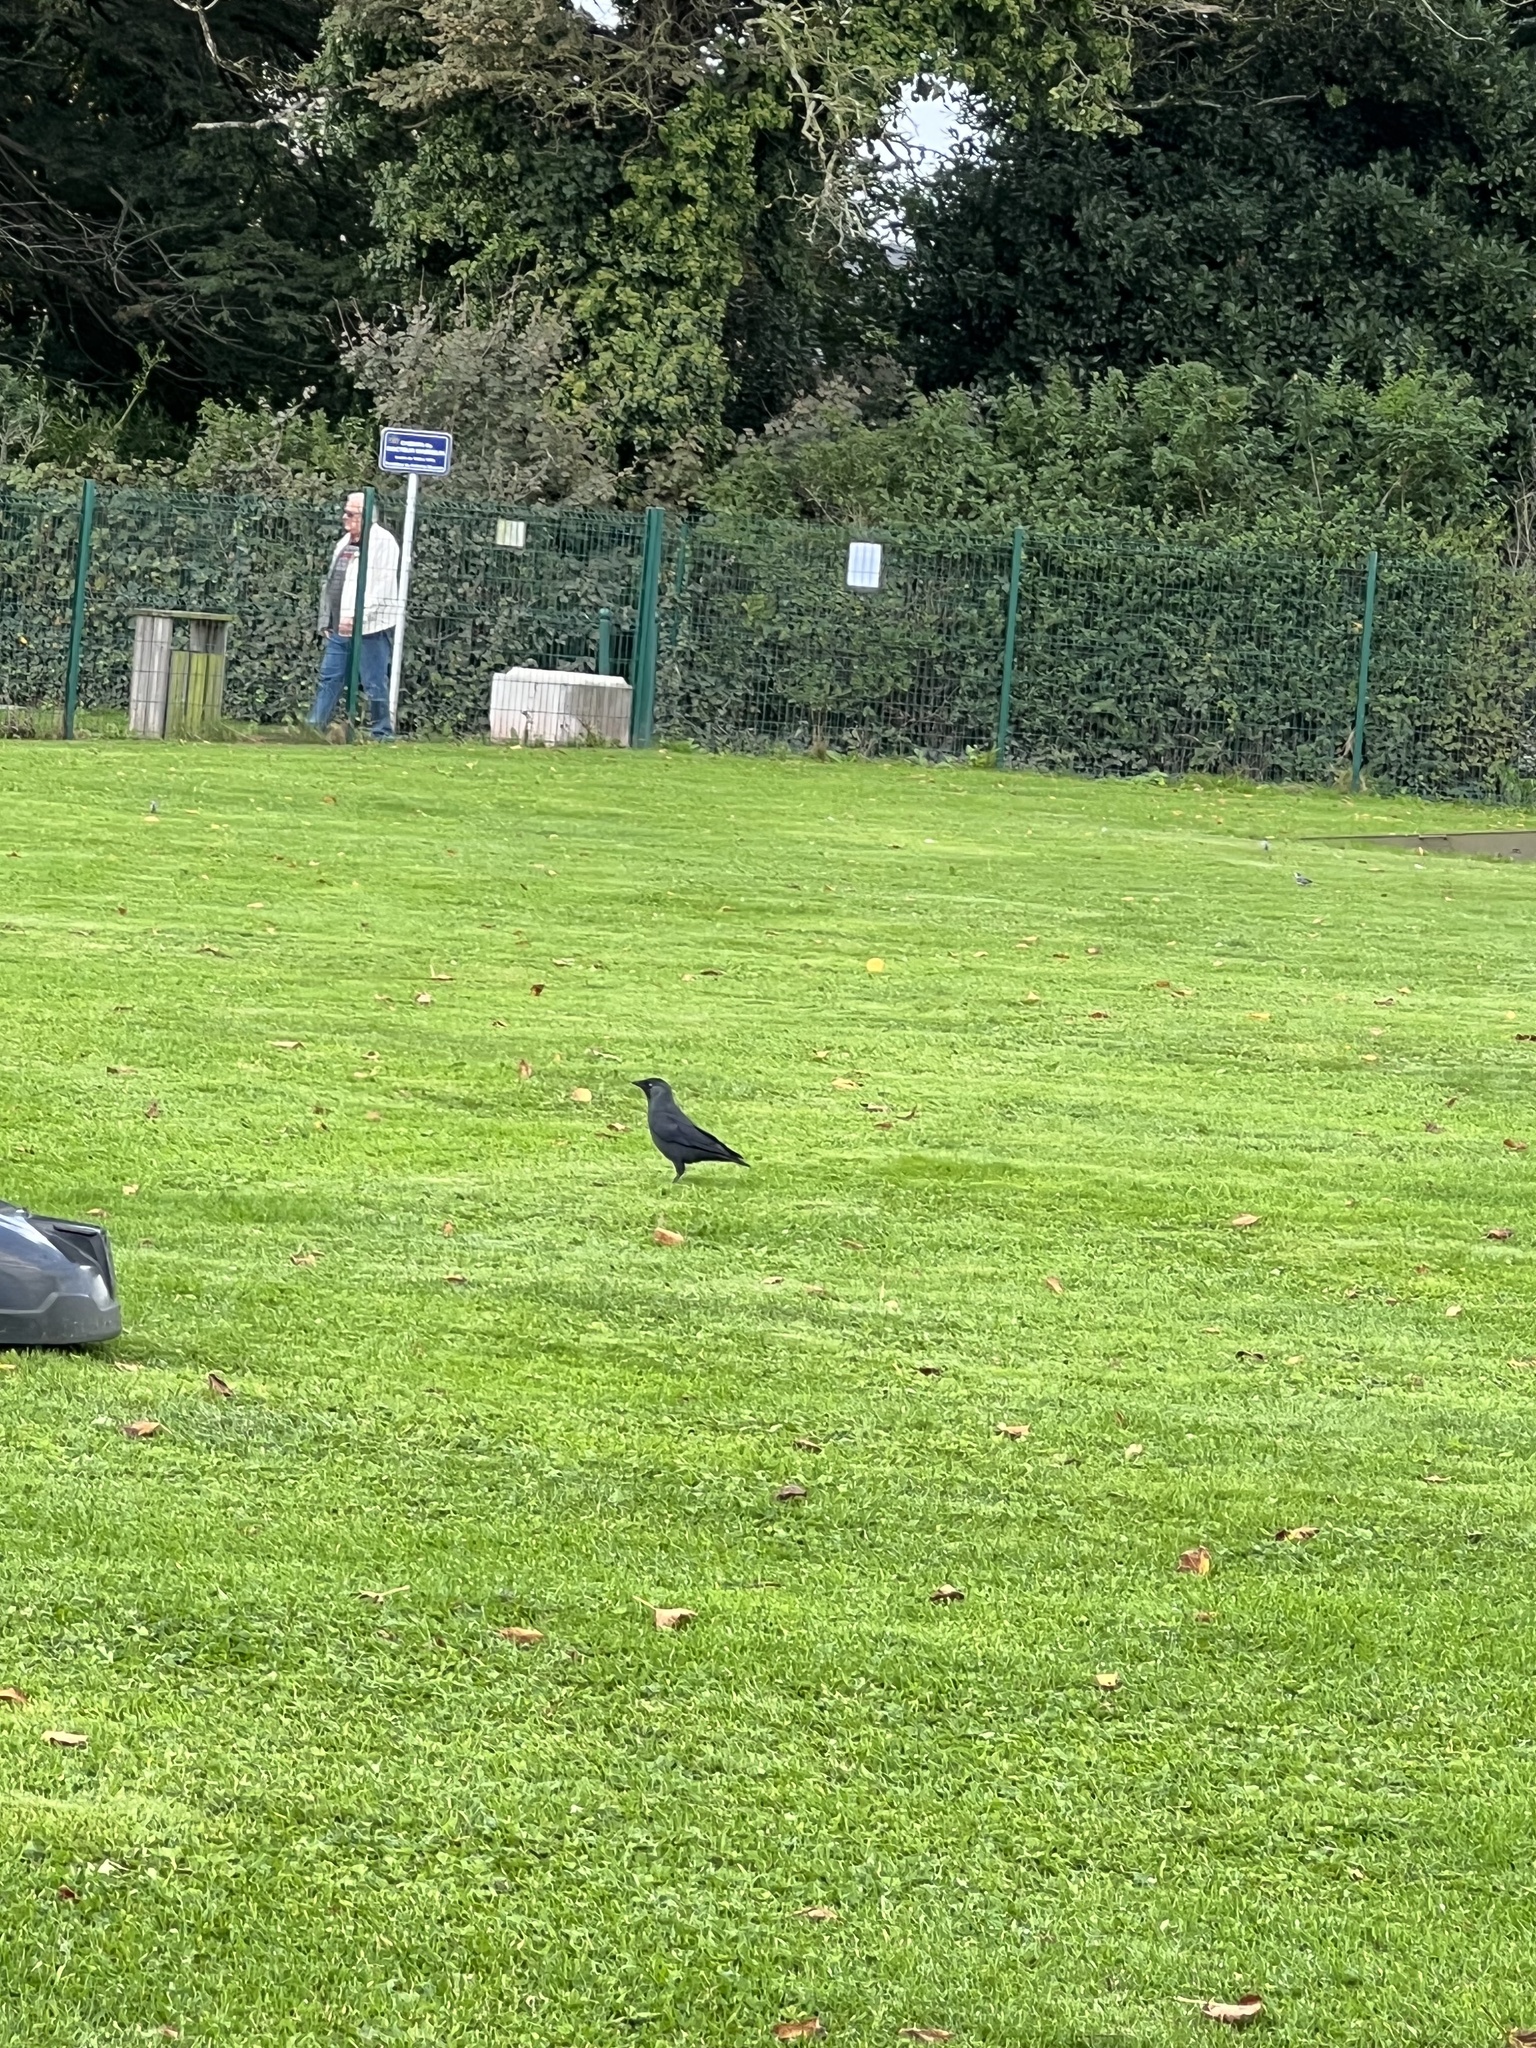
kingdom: Animalia
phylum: Chordata
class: Aves
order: Passeriformes
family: Corvidae
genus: Coloeus
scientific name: Coloeus monedula
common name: Western jackdaw
